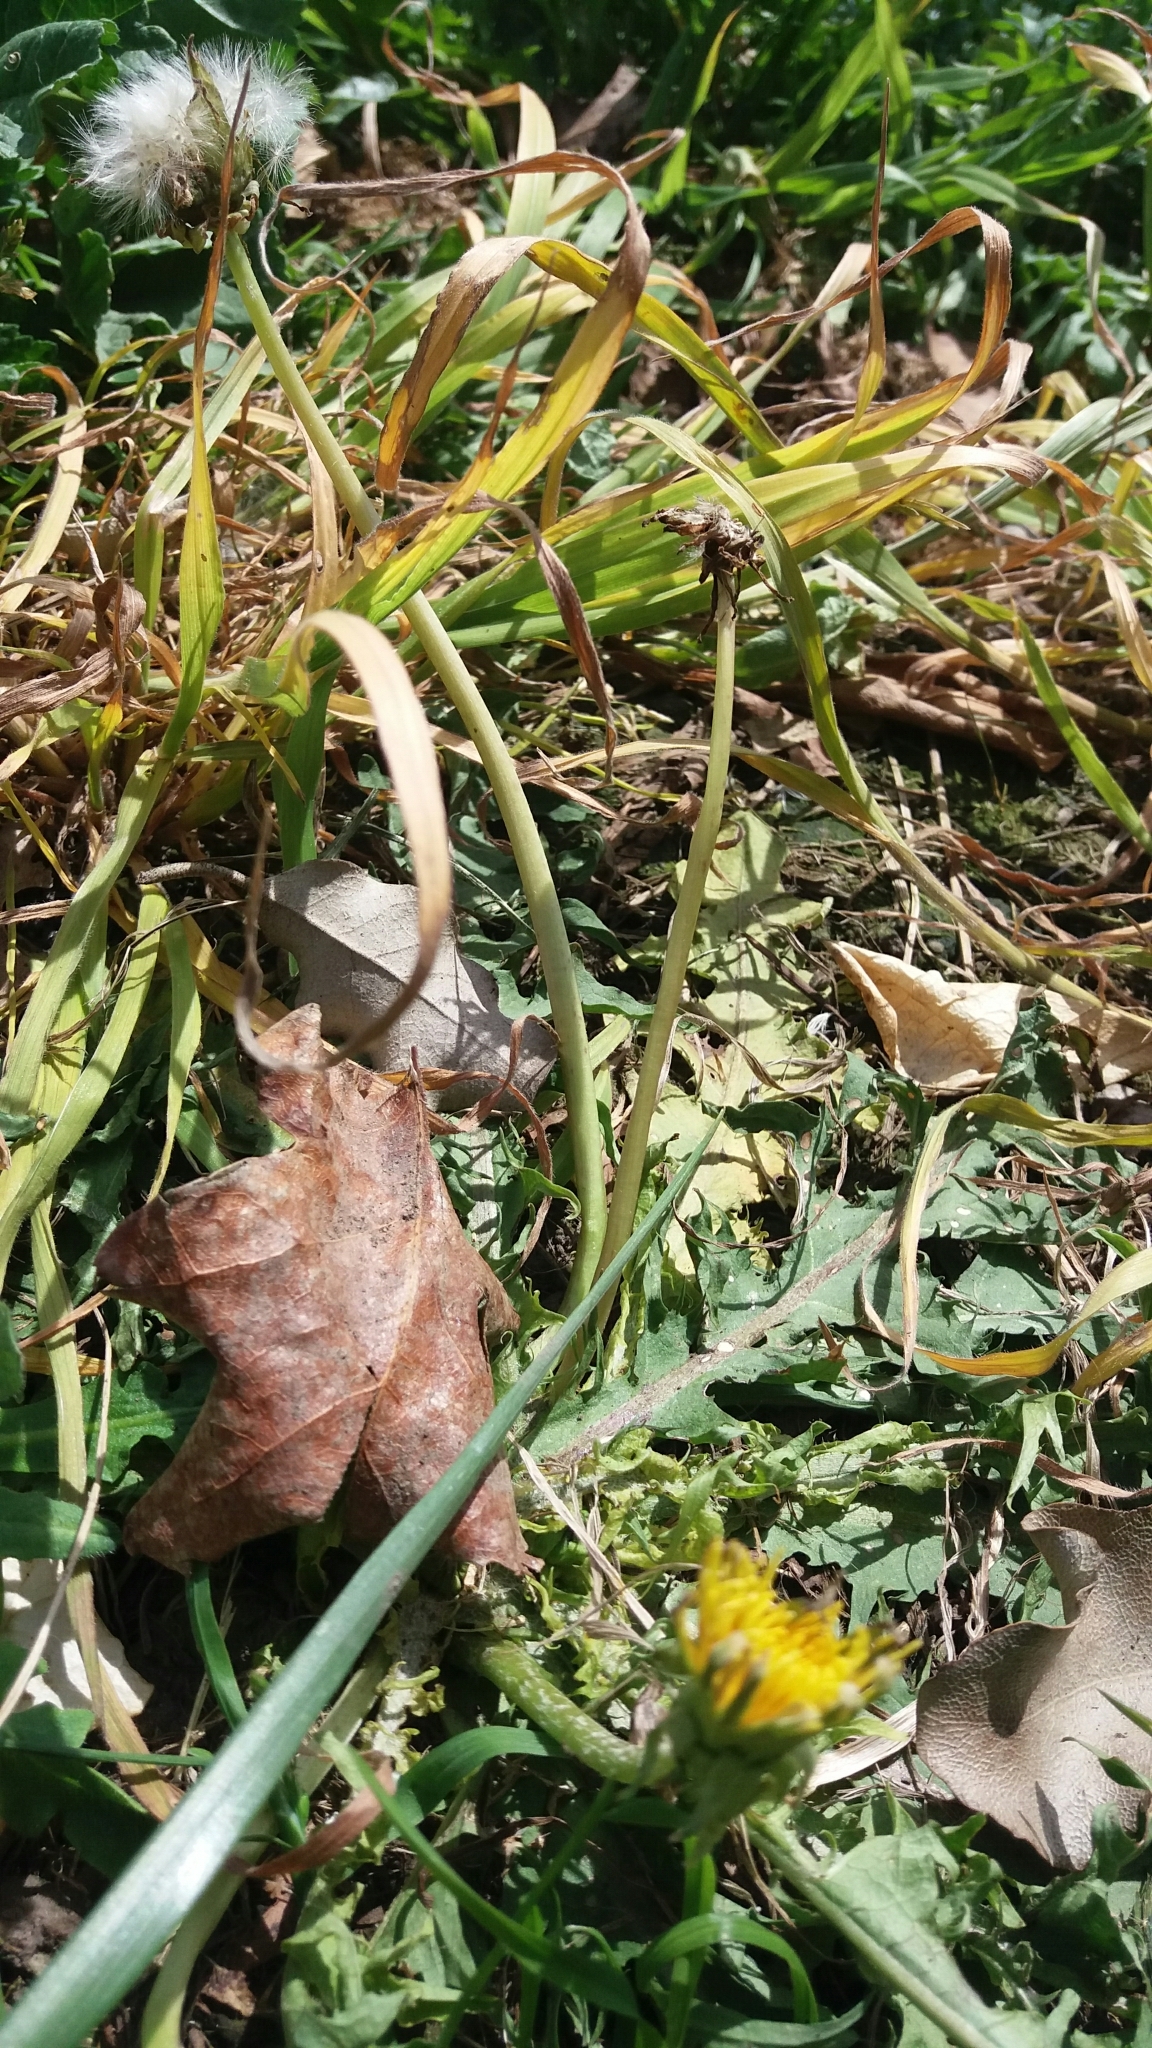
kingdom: Plantae
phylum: Tracheophyta
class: Magnoliopsida
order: Asterales
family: Asteraceae
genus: Taraxacum
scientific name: Taraxacum officinale
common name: Common dandelion
